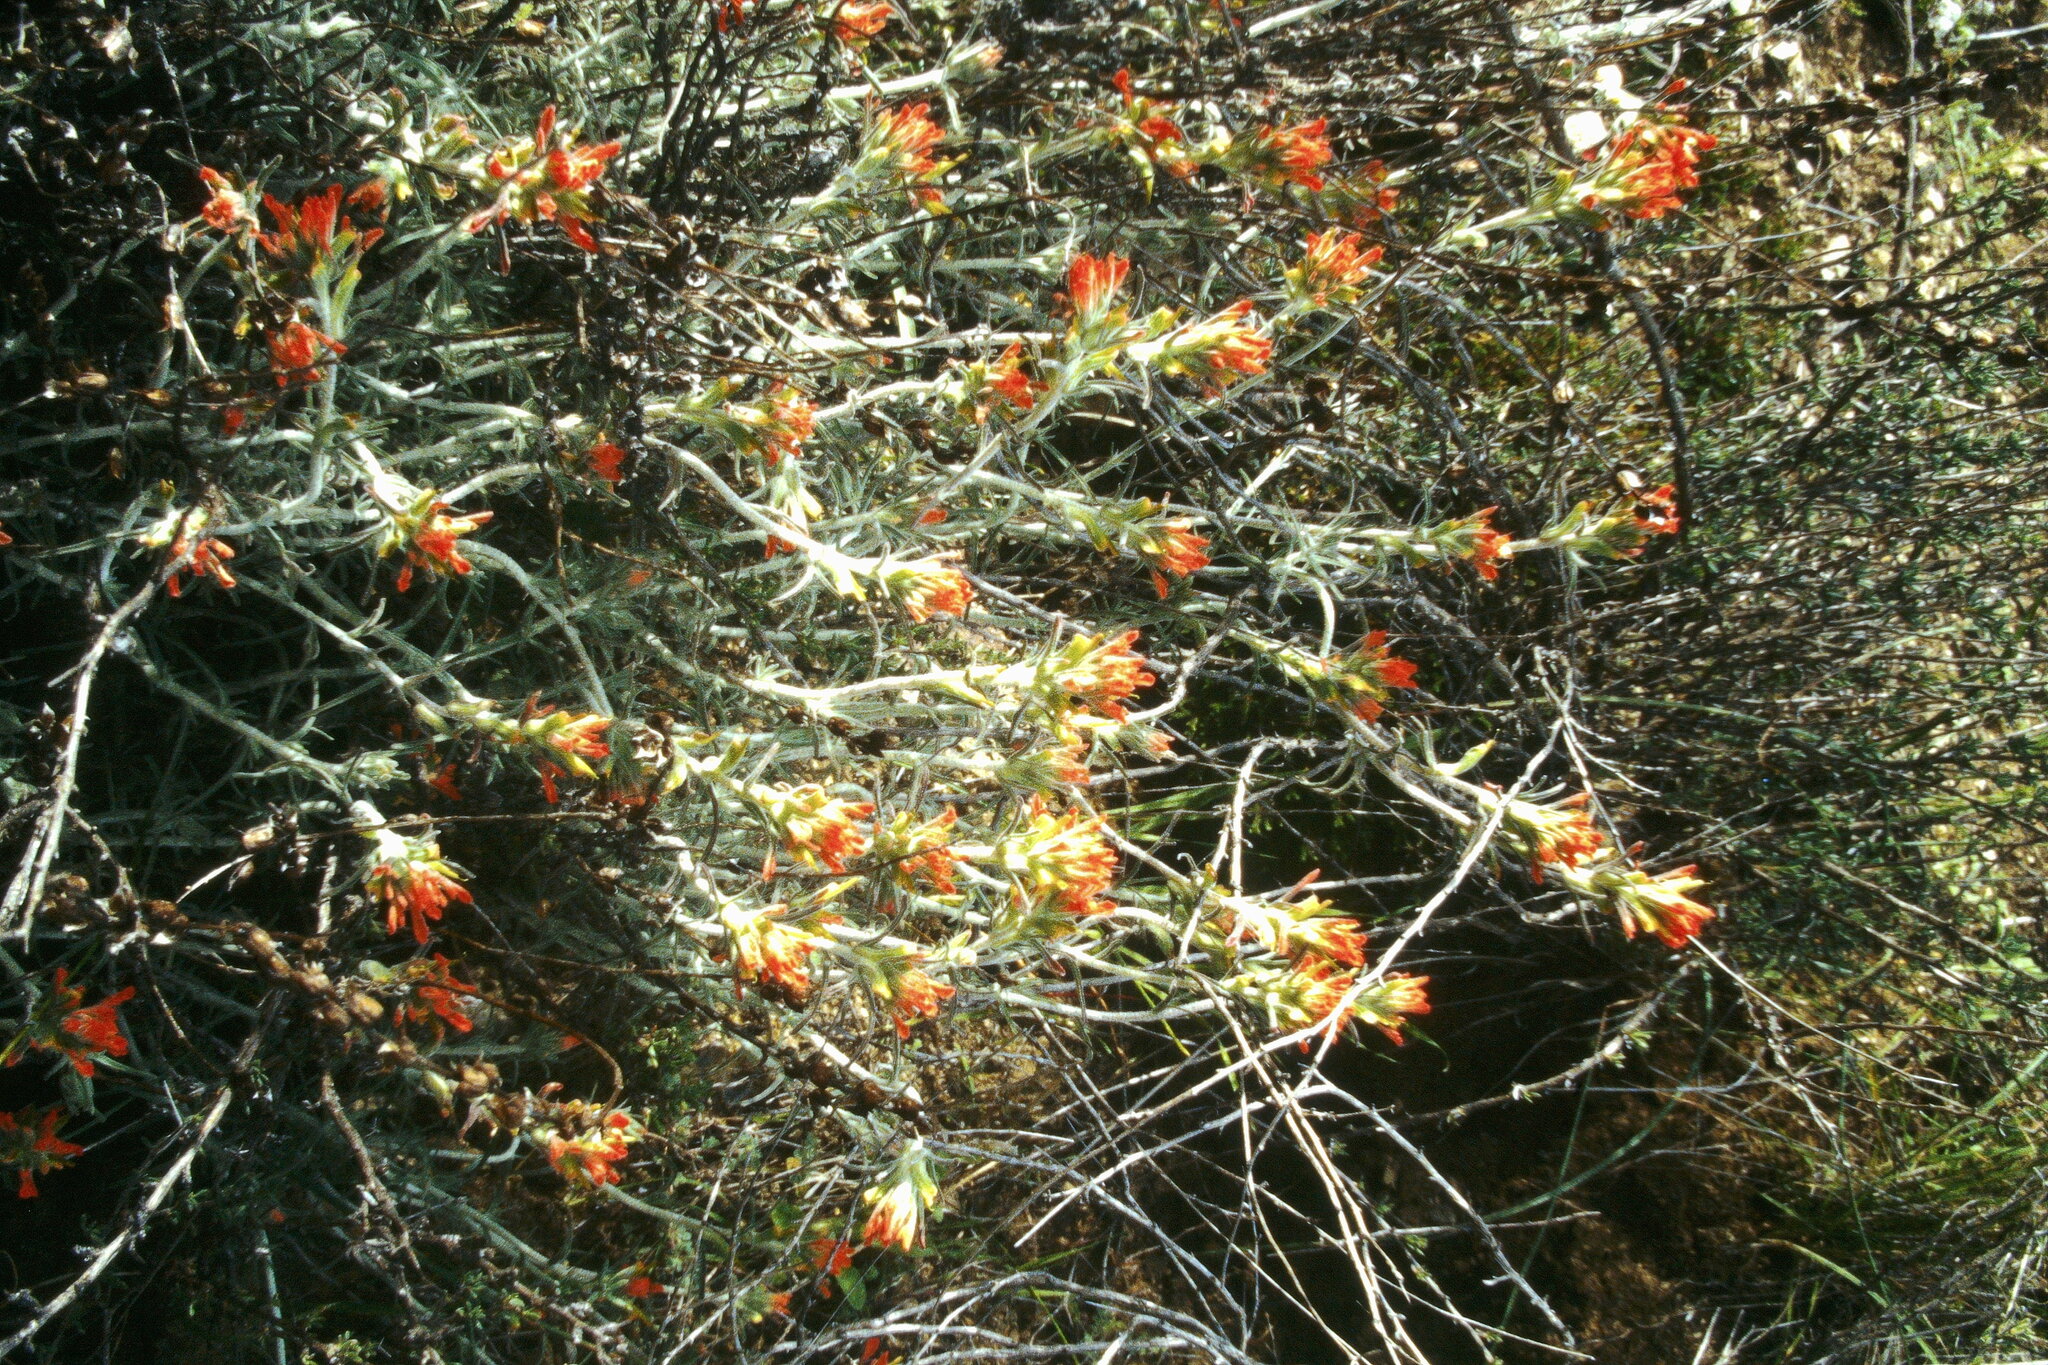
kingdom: Plantae
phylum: Tracheophyta
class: Magnoliopsida
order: Lamiales
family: Orobanchaceae
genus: Castilleja
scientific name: Castilleja foliolosa
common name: Woolly indian paintbrush
